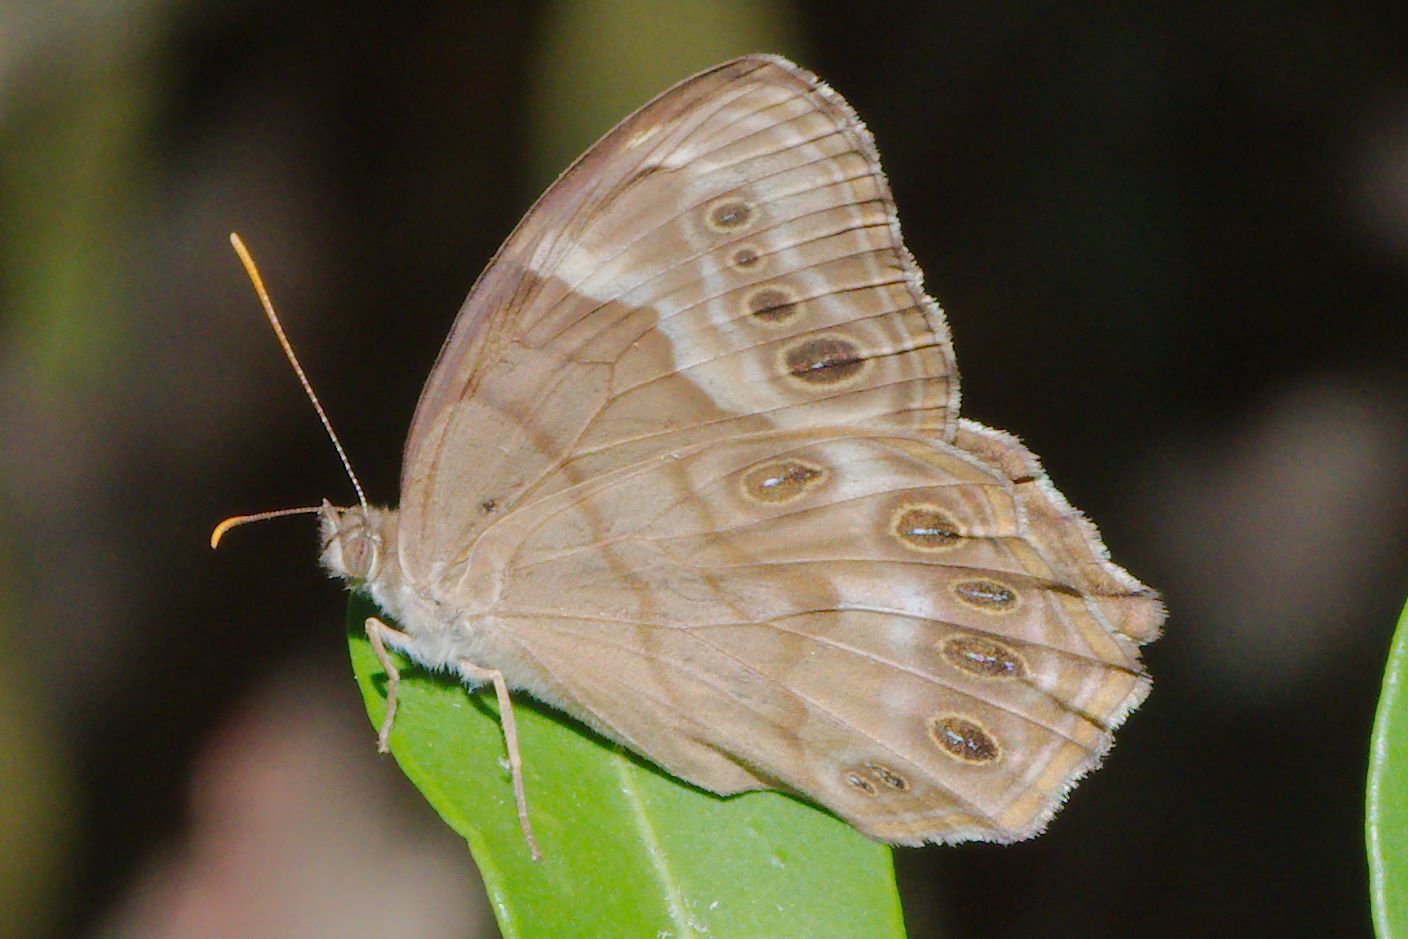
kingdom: Animalia
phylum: Arthropoda
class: Insecta
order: Lepidoptera
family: Nymphalidae
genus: Enodia
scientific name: Enodia portlandia
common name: Southern pearly-eye
